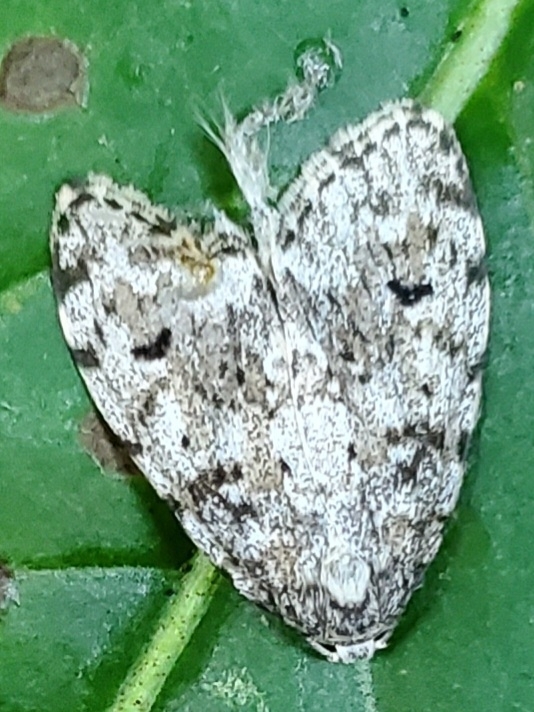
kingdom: Animalia
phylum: Arthropoda
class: Insecta
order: Lepidoptera
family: Erebidae
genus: Clemensia
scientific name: Clemensia albata
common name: Little white lichen moth
